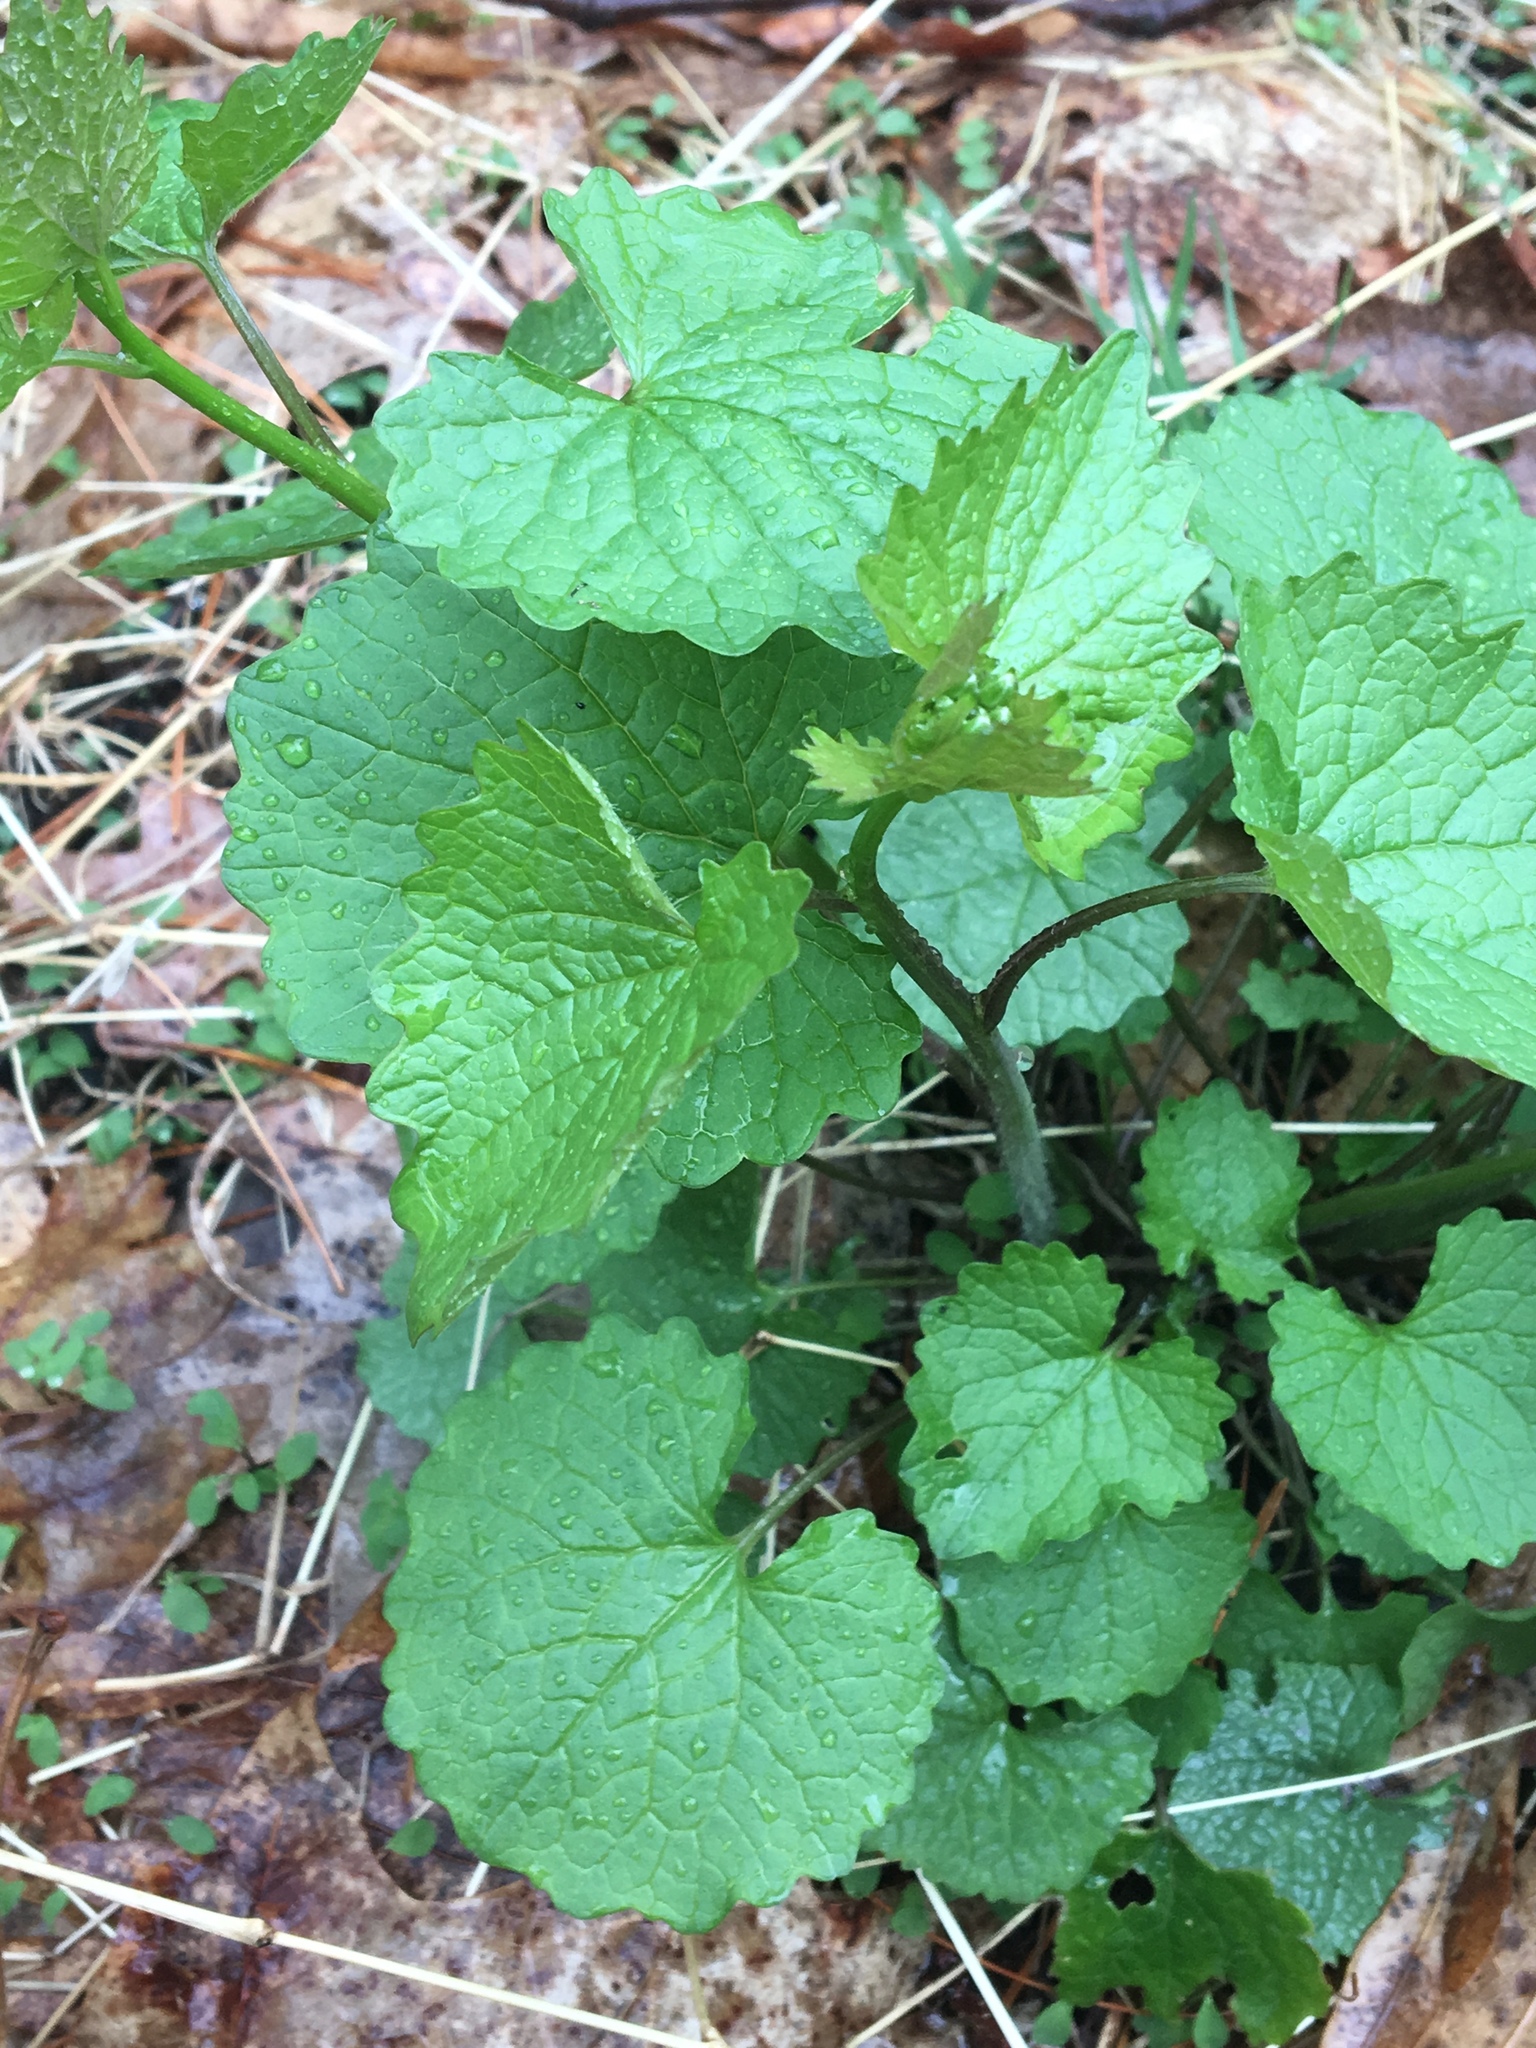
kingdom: Plantae
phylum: Tracheophyta
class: Magnoliopsida
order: Brassicales
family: Brassicaceae
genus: Alliaria
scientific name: Alliaria petiolata
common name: Garlic mustard
